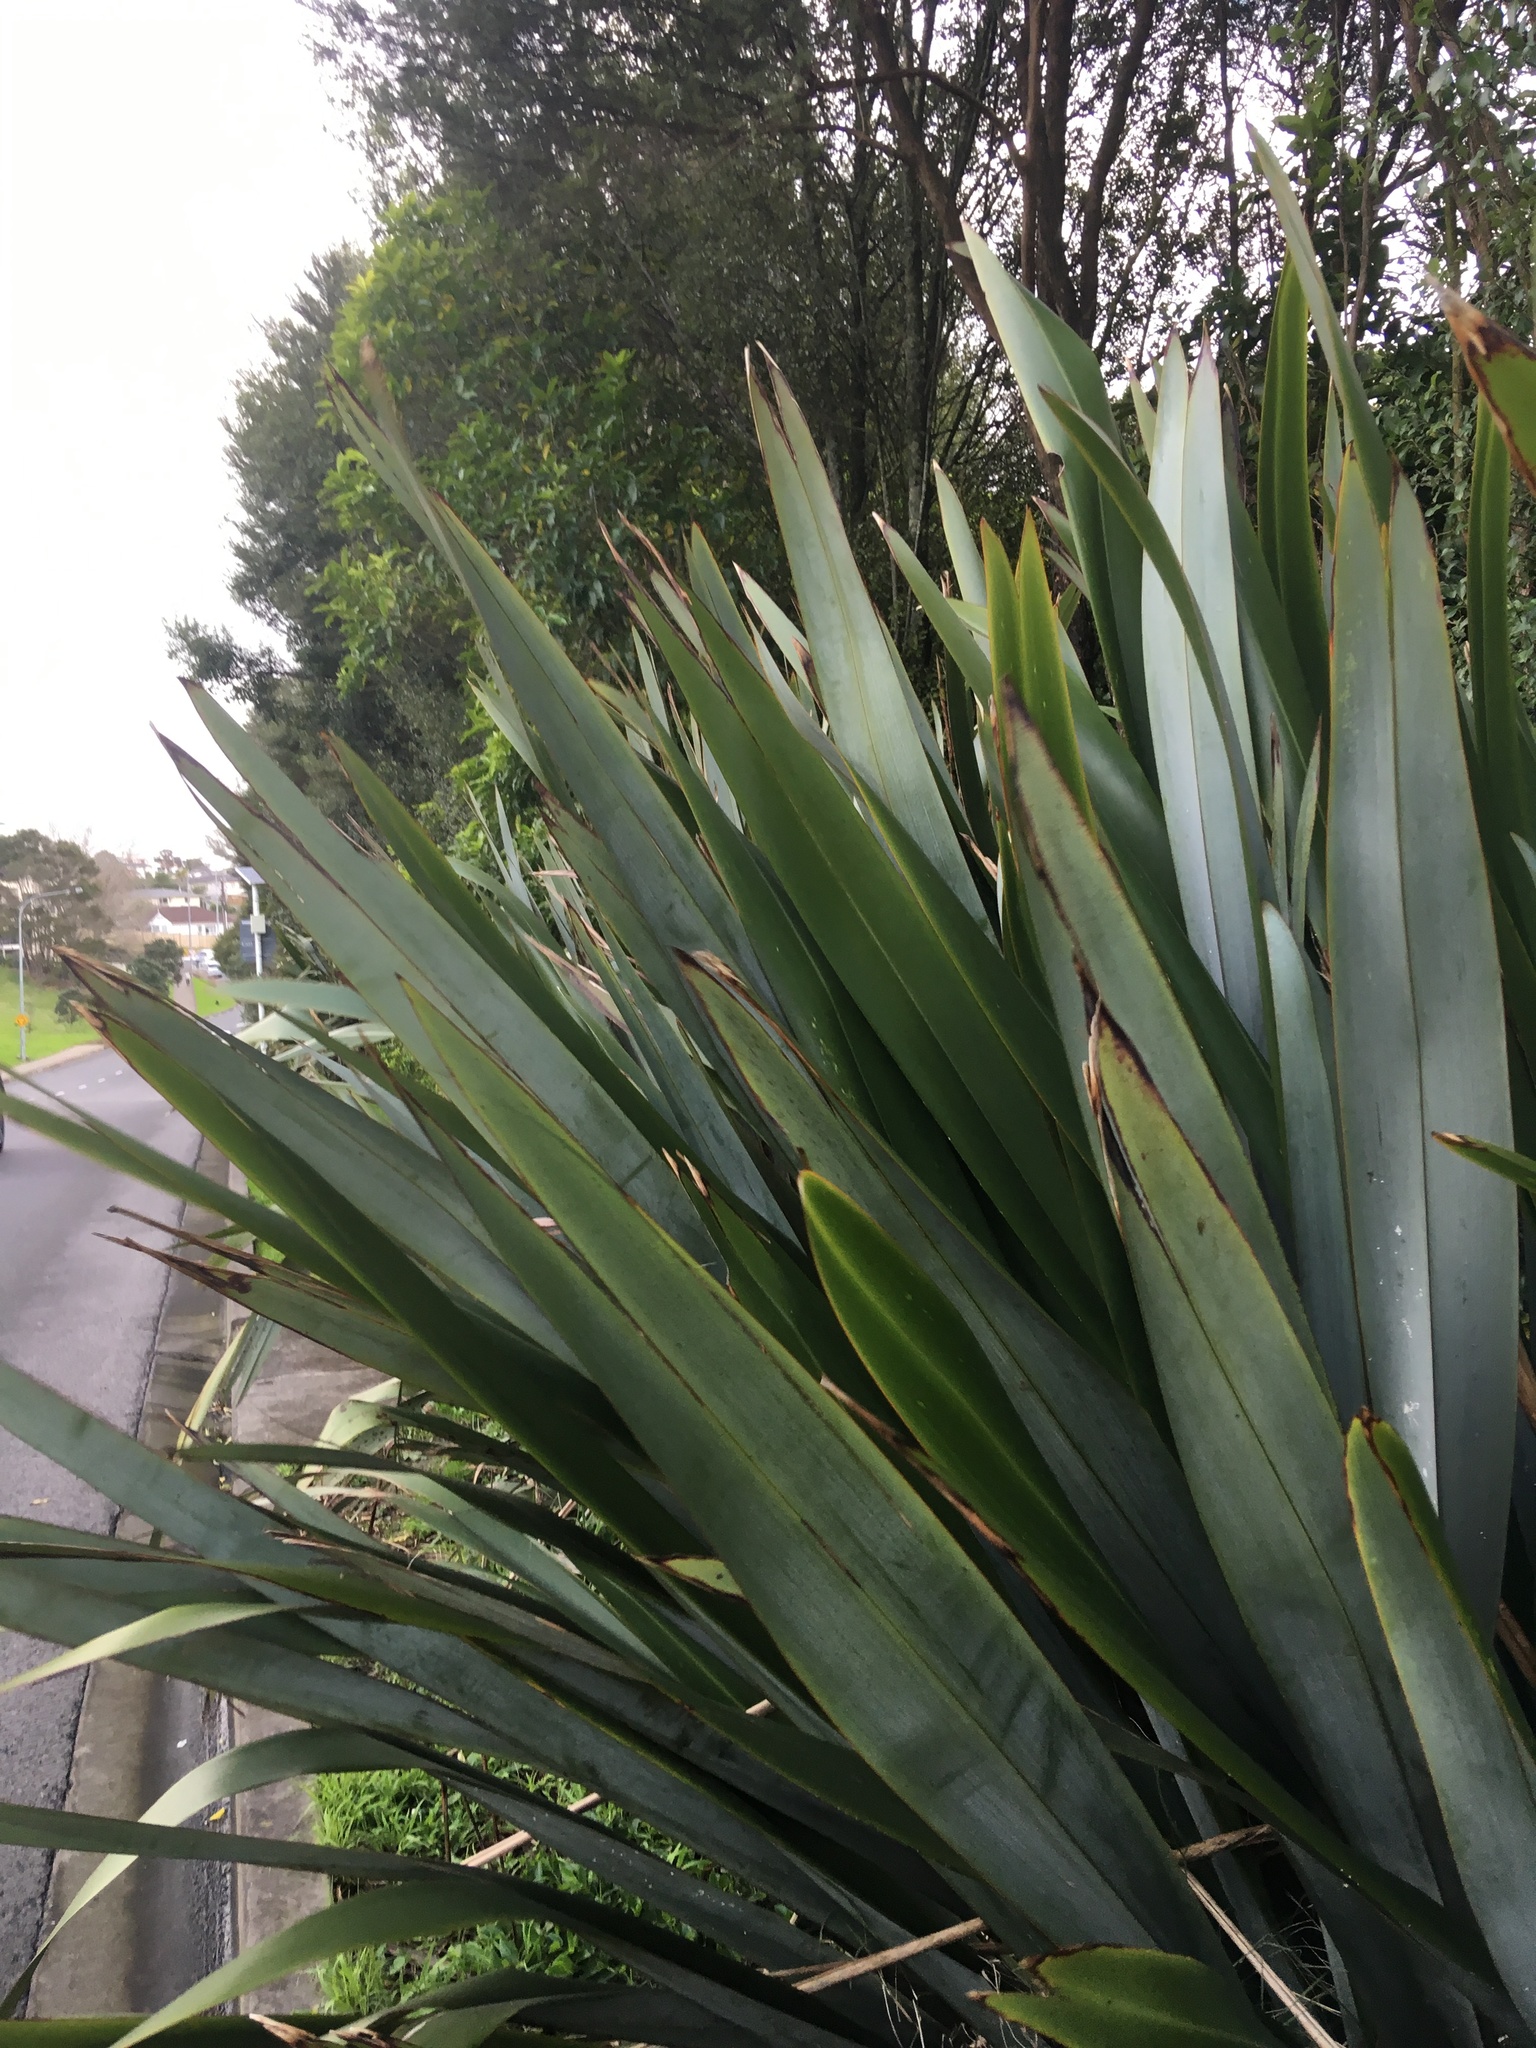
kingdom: Plantae
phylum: Tracheophyta
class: Liliopsida
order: Asparagales
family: Asphodelaceae
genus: Phormium
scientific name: Phormium tenax
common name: New zealand flax
